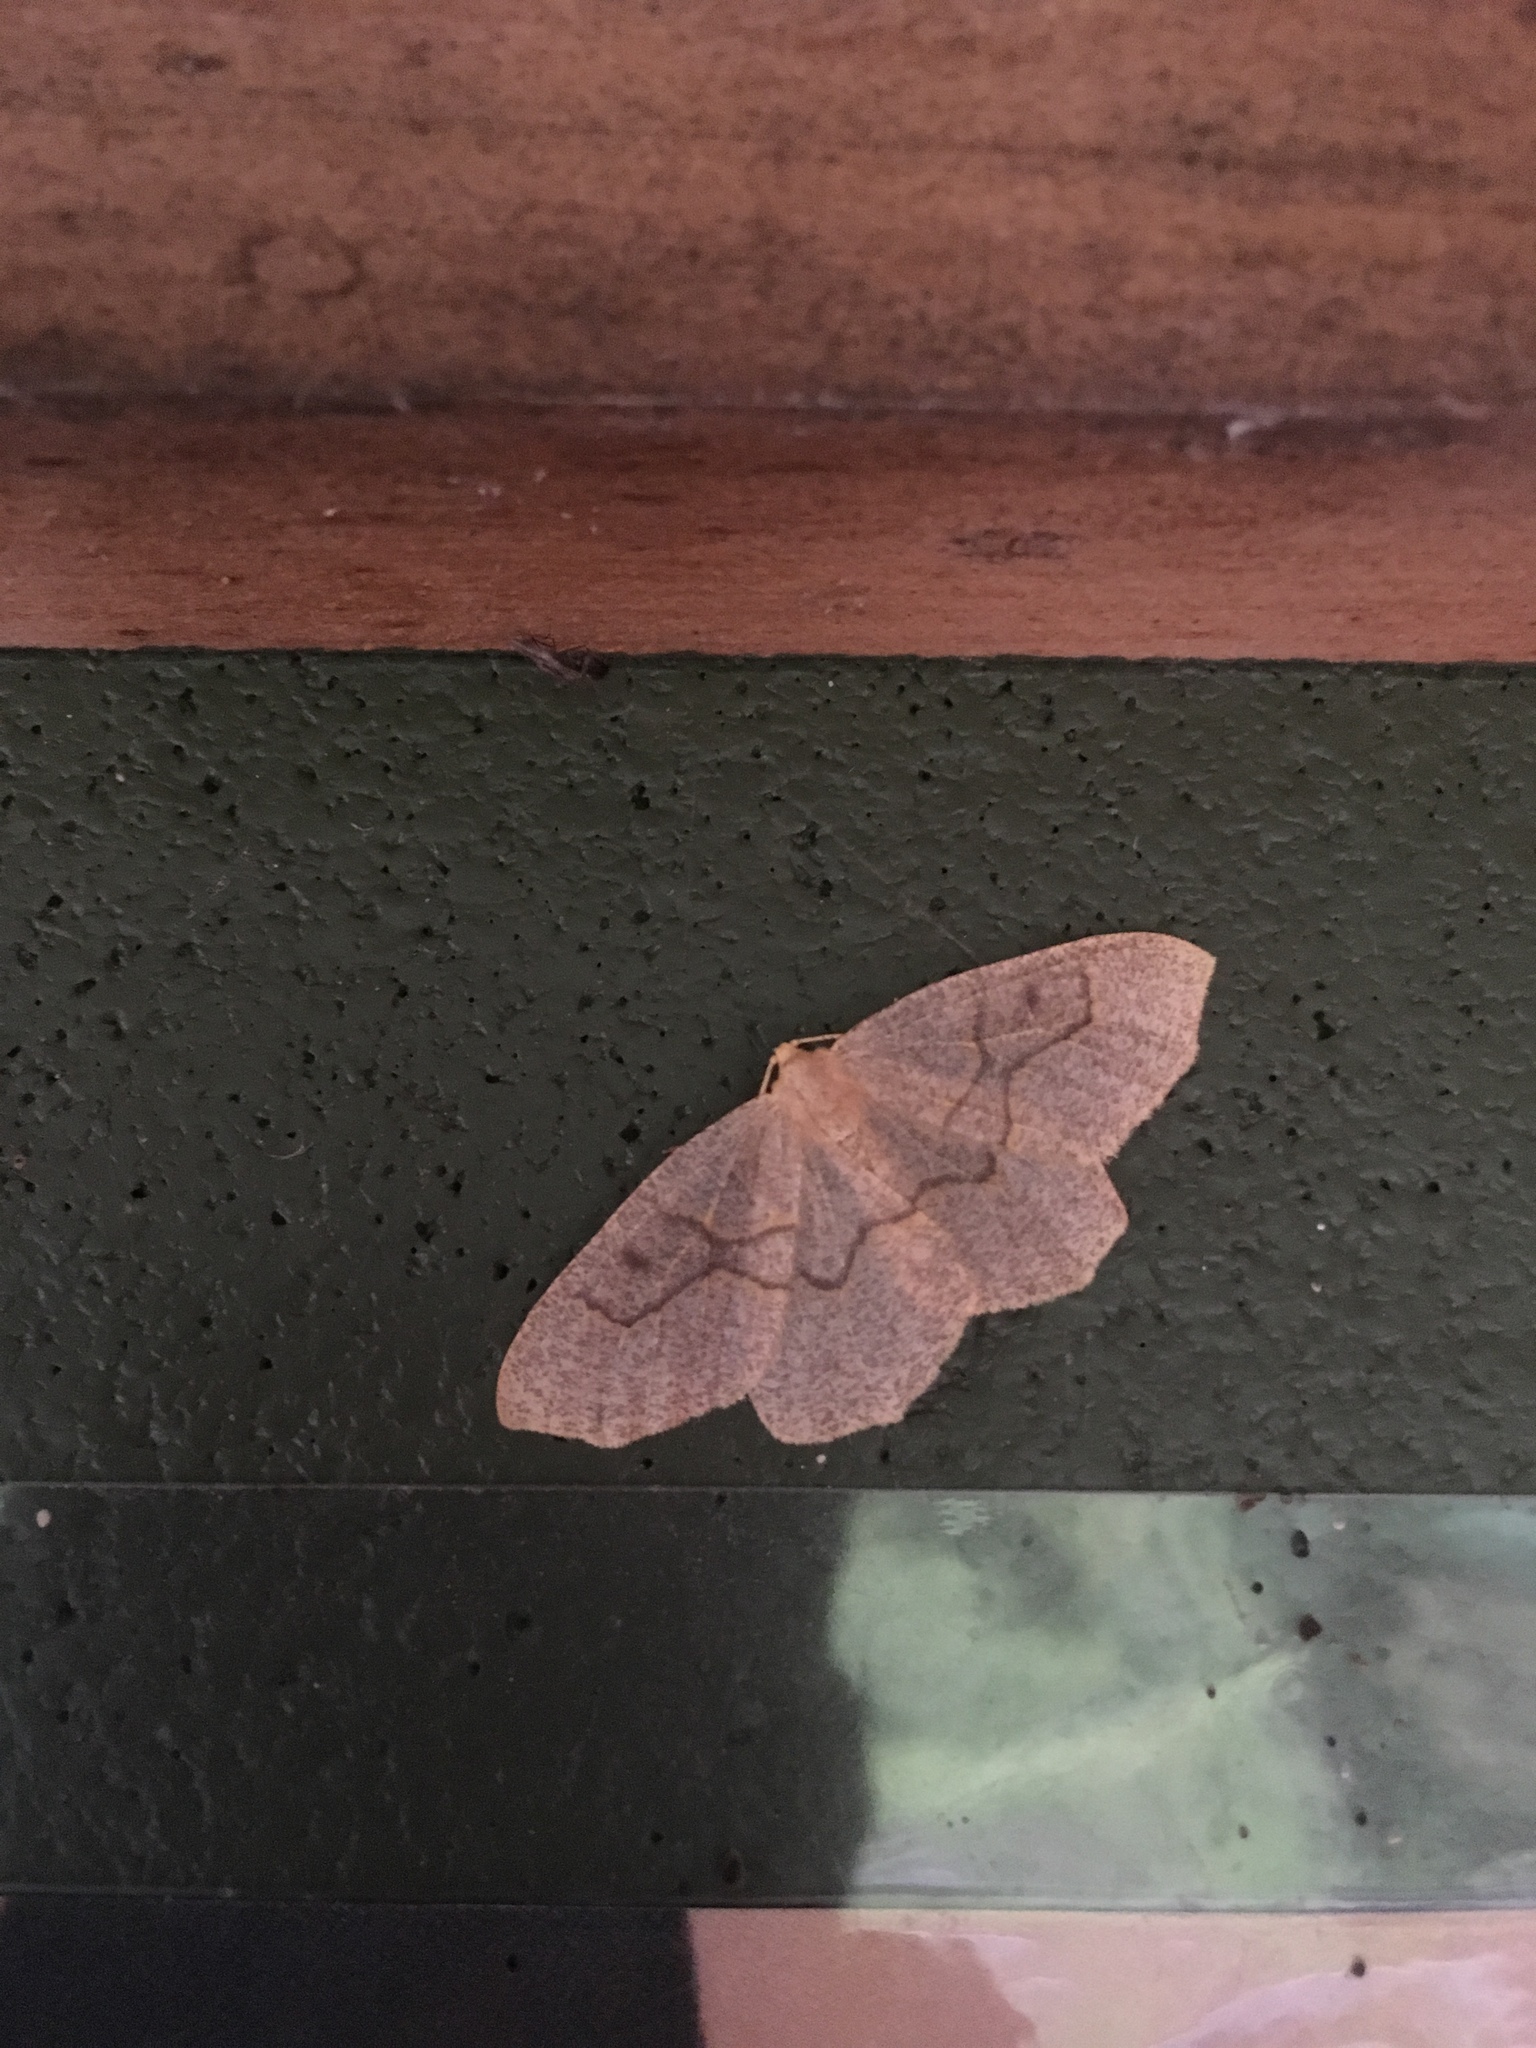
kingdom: Animalia
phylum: Arthropoda
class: Insecta
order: Lepidoptera
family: Geometridae
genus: Lambdina
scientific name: Lambdina fiscellaria
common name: Hemlock looper
